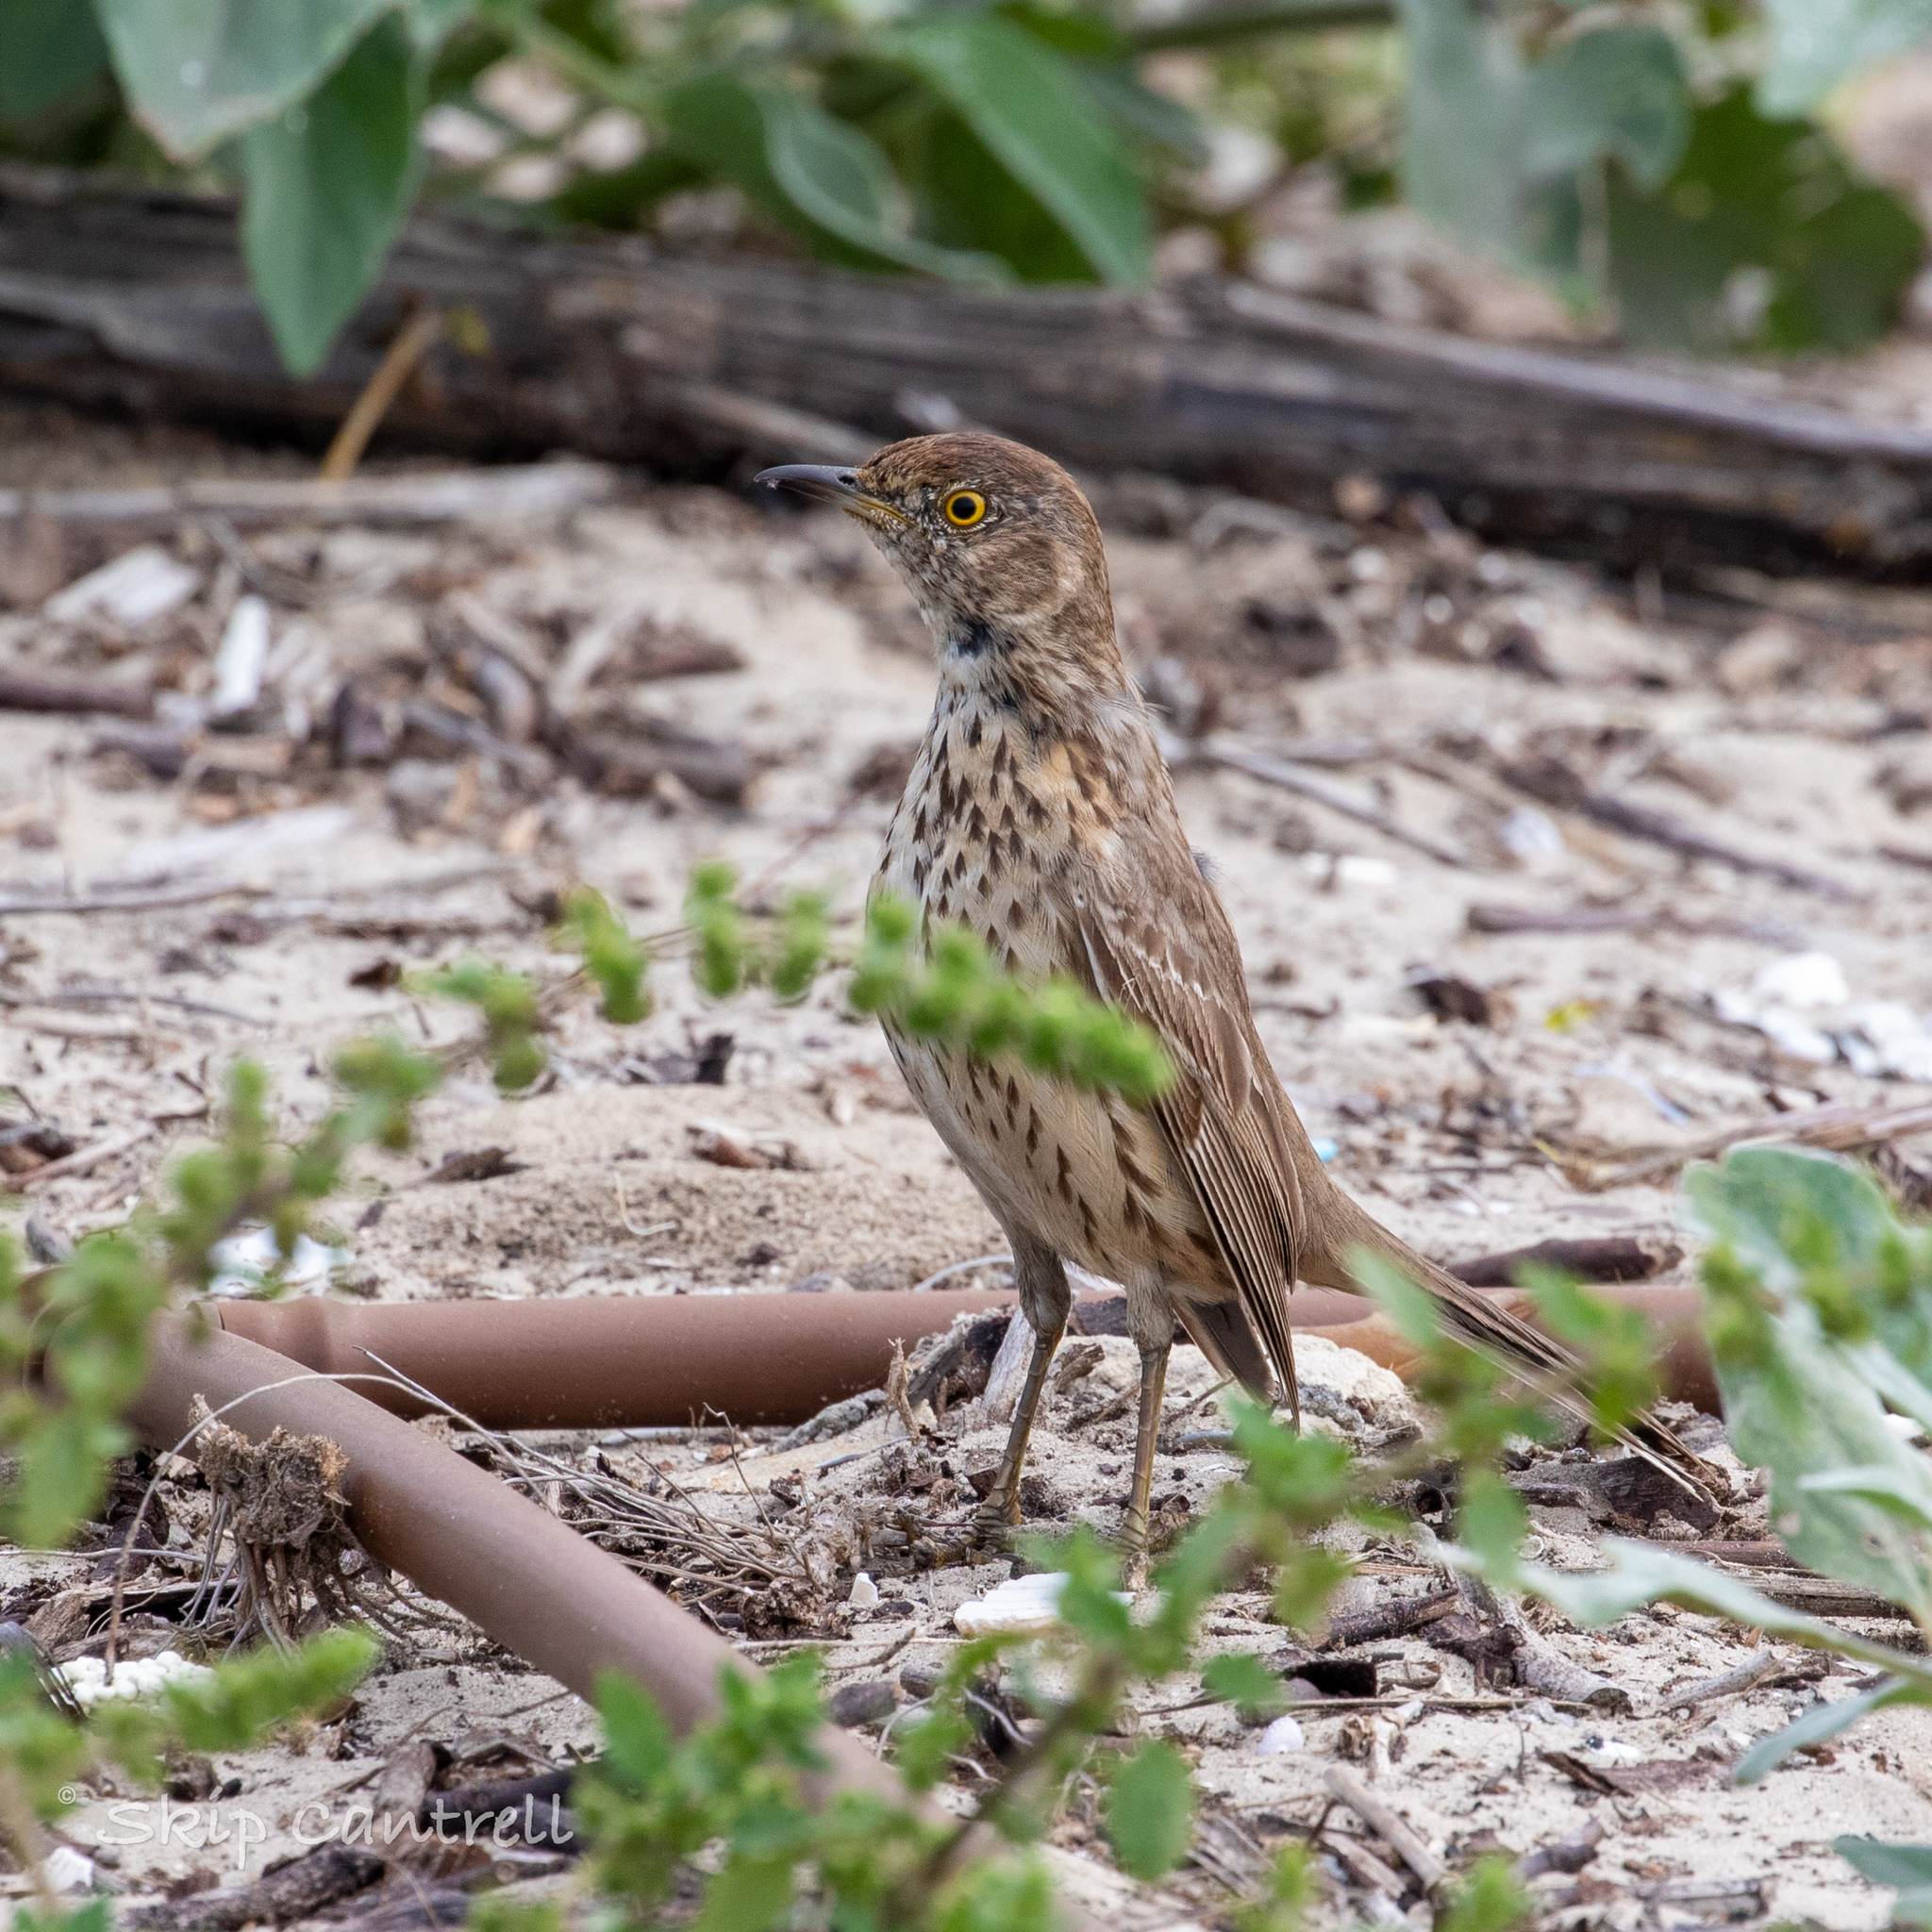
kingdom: Animalia
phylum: Chordata
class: Aves
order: Passeriformes
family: Mimidae
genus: Oreoscoptes
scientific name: Oreoscoptes montanus
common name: Sage thrasher
